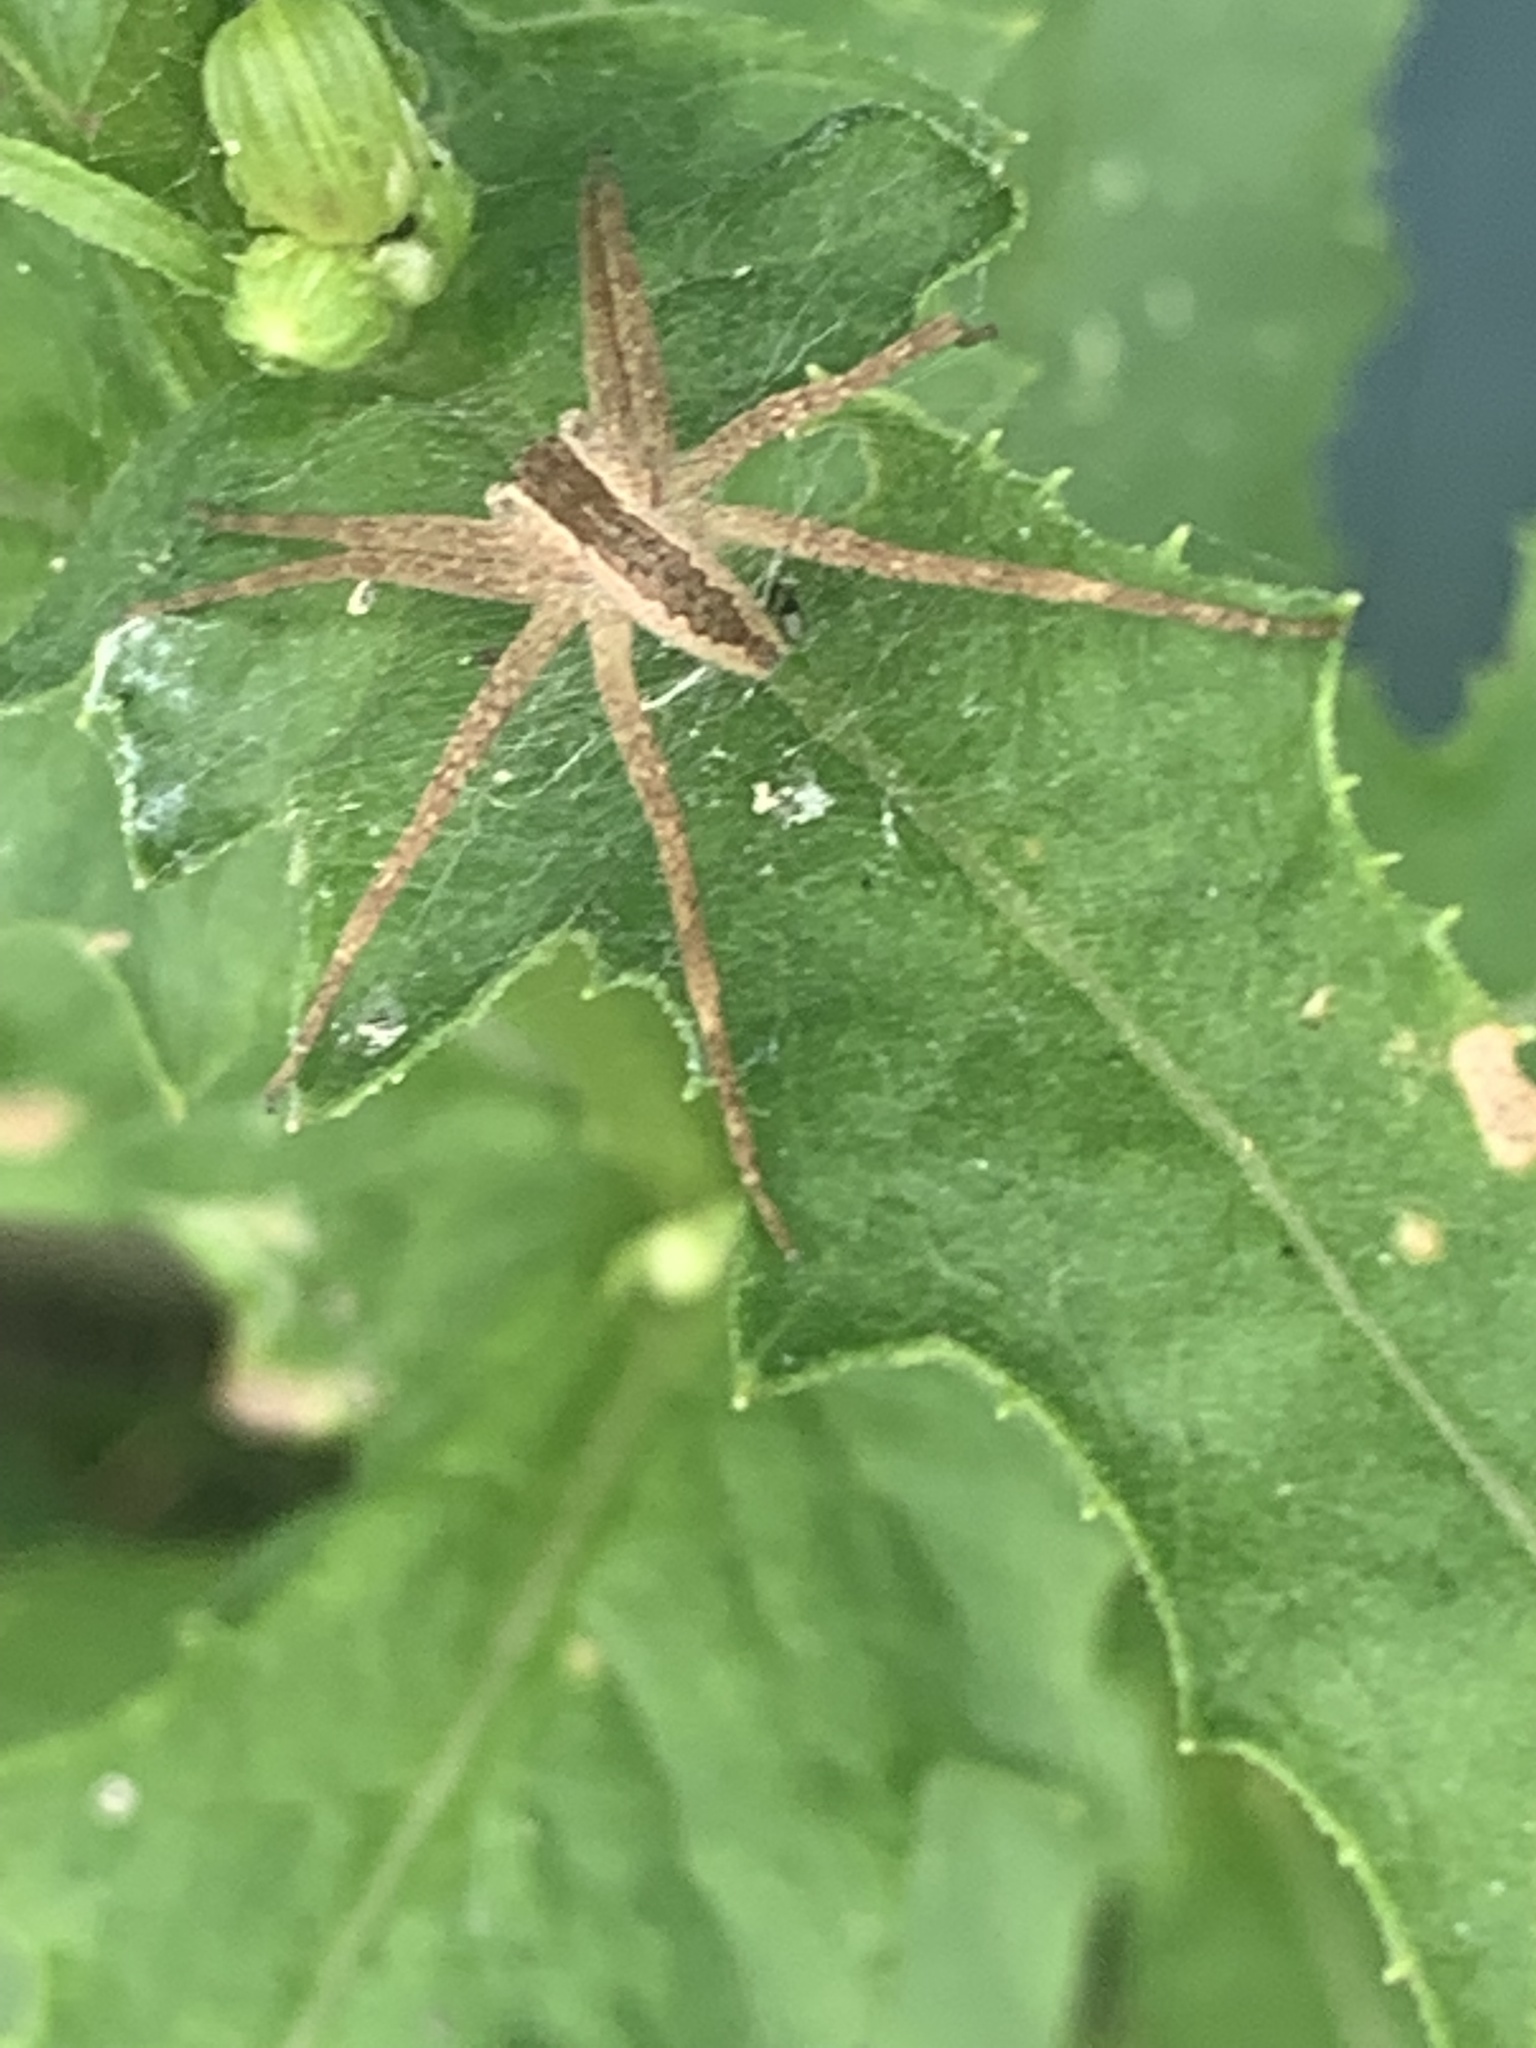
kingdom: Animalia
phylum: Arthropoda
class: Arachnida
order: Araneae
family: Pisauridae
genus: Pisaurina
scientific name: Pisaurina mira
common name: American nursery web spider
